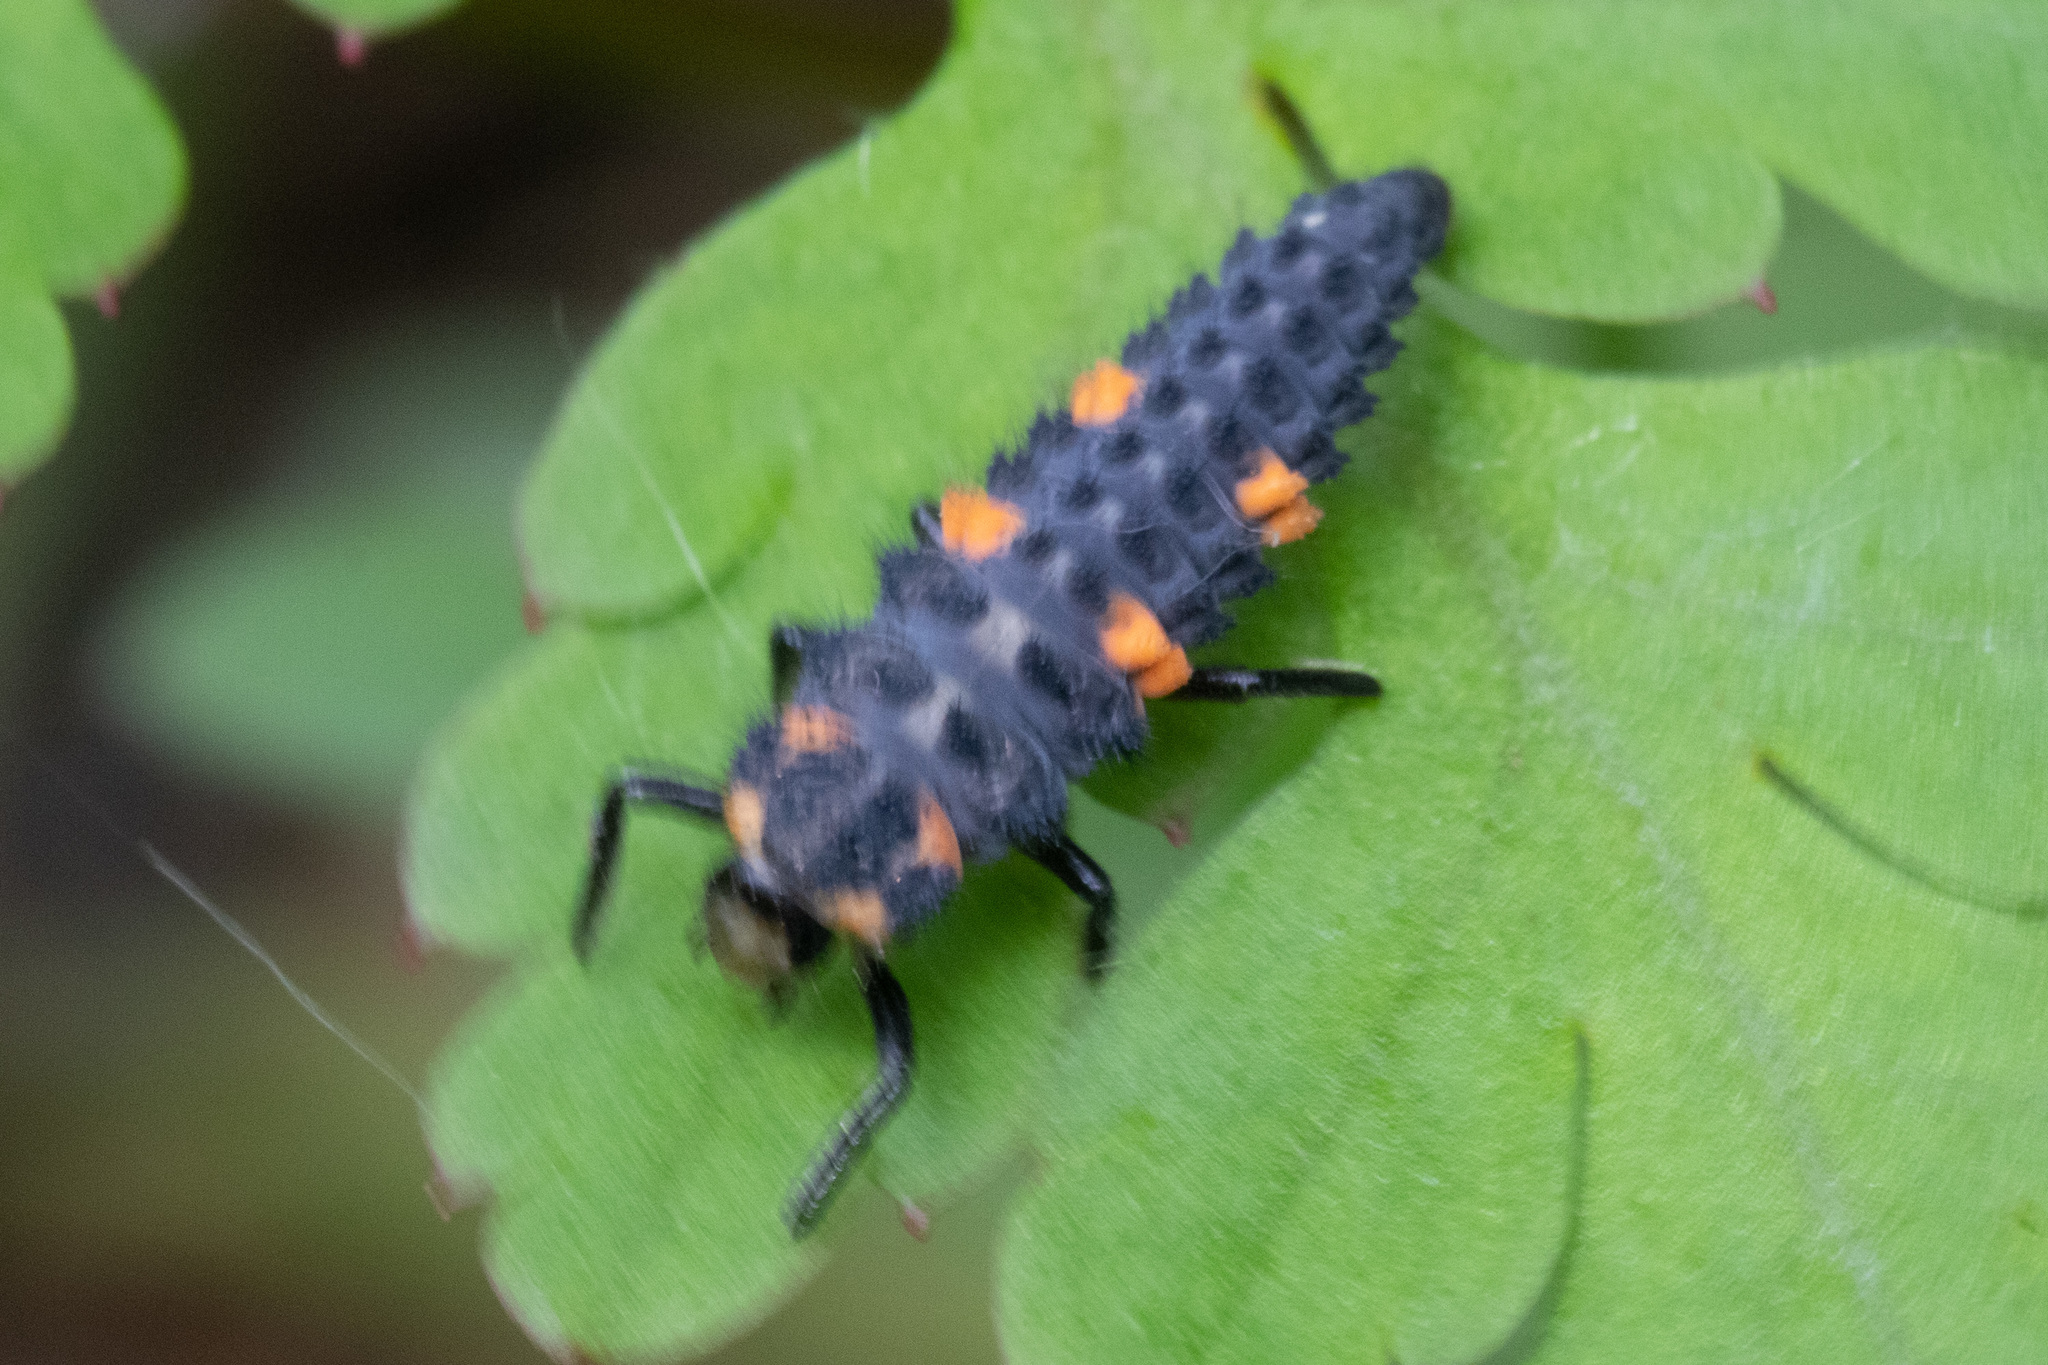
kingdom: Animalia
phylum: Arthropoda
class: Insecta
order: Coleoptera
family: Coccinellidae
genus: Coccinella
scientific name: Coccinella septempunctata
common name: Sevenspotted lady beetle
